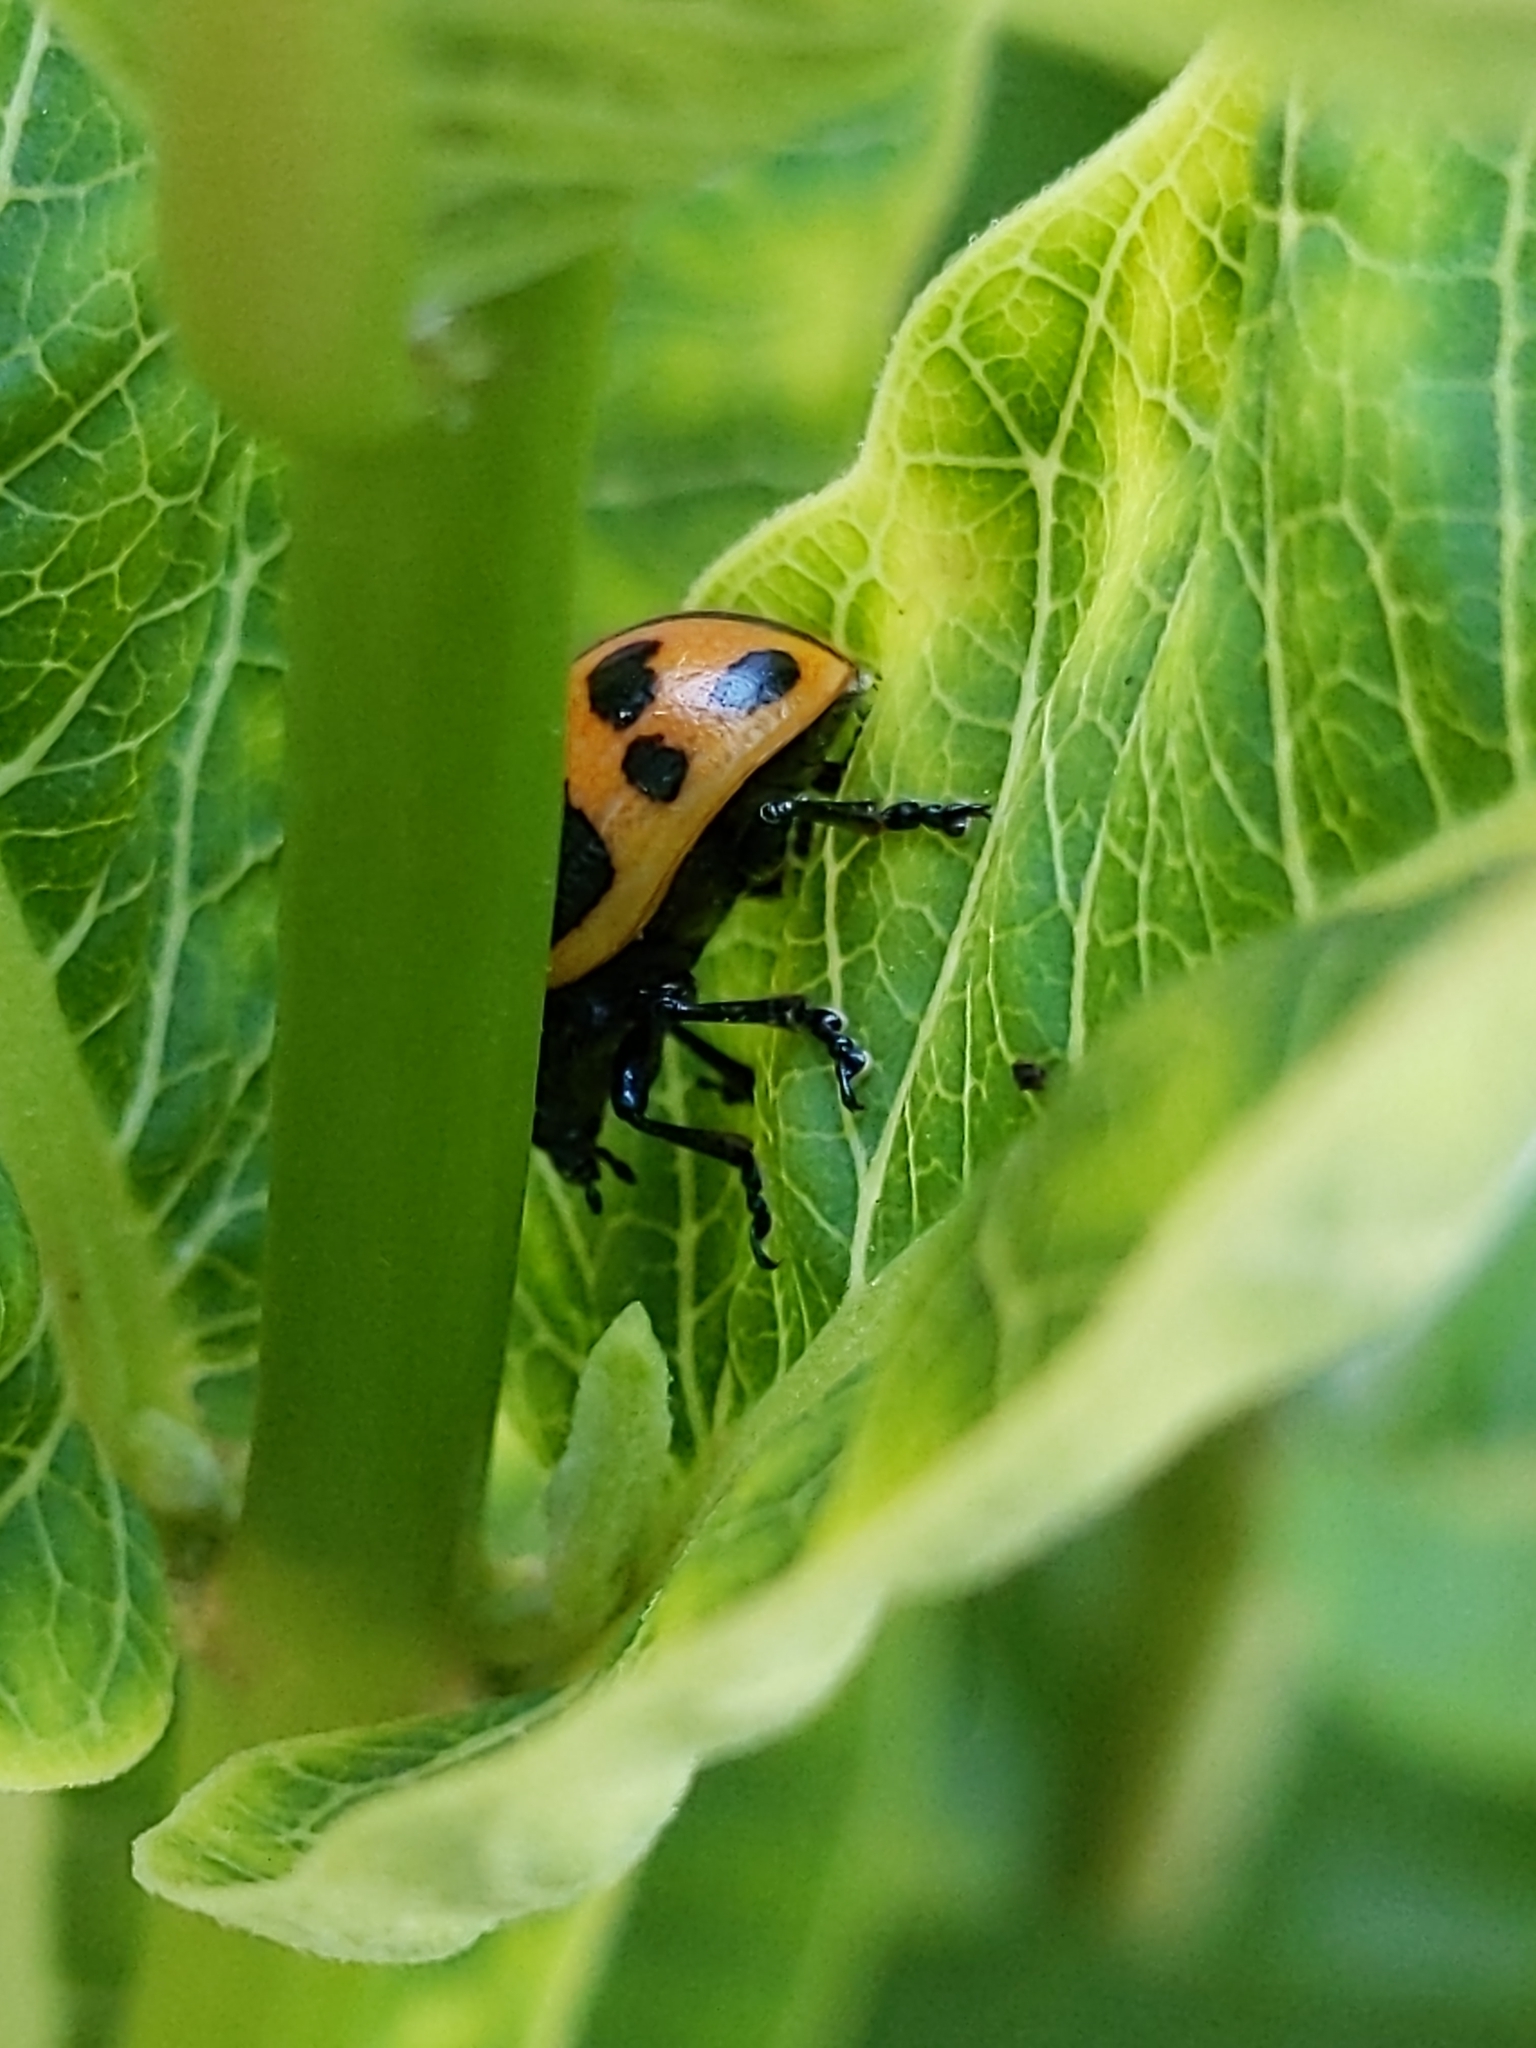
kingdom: Animalia
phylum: Arthropoda
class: Insecta
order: Coleoptera
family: Chrysomelidae
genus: Labidomera
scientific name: Labidomera clivicollis
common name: Swamp milkweed leaf beetle
